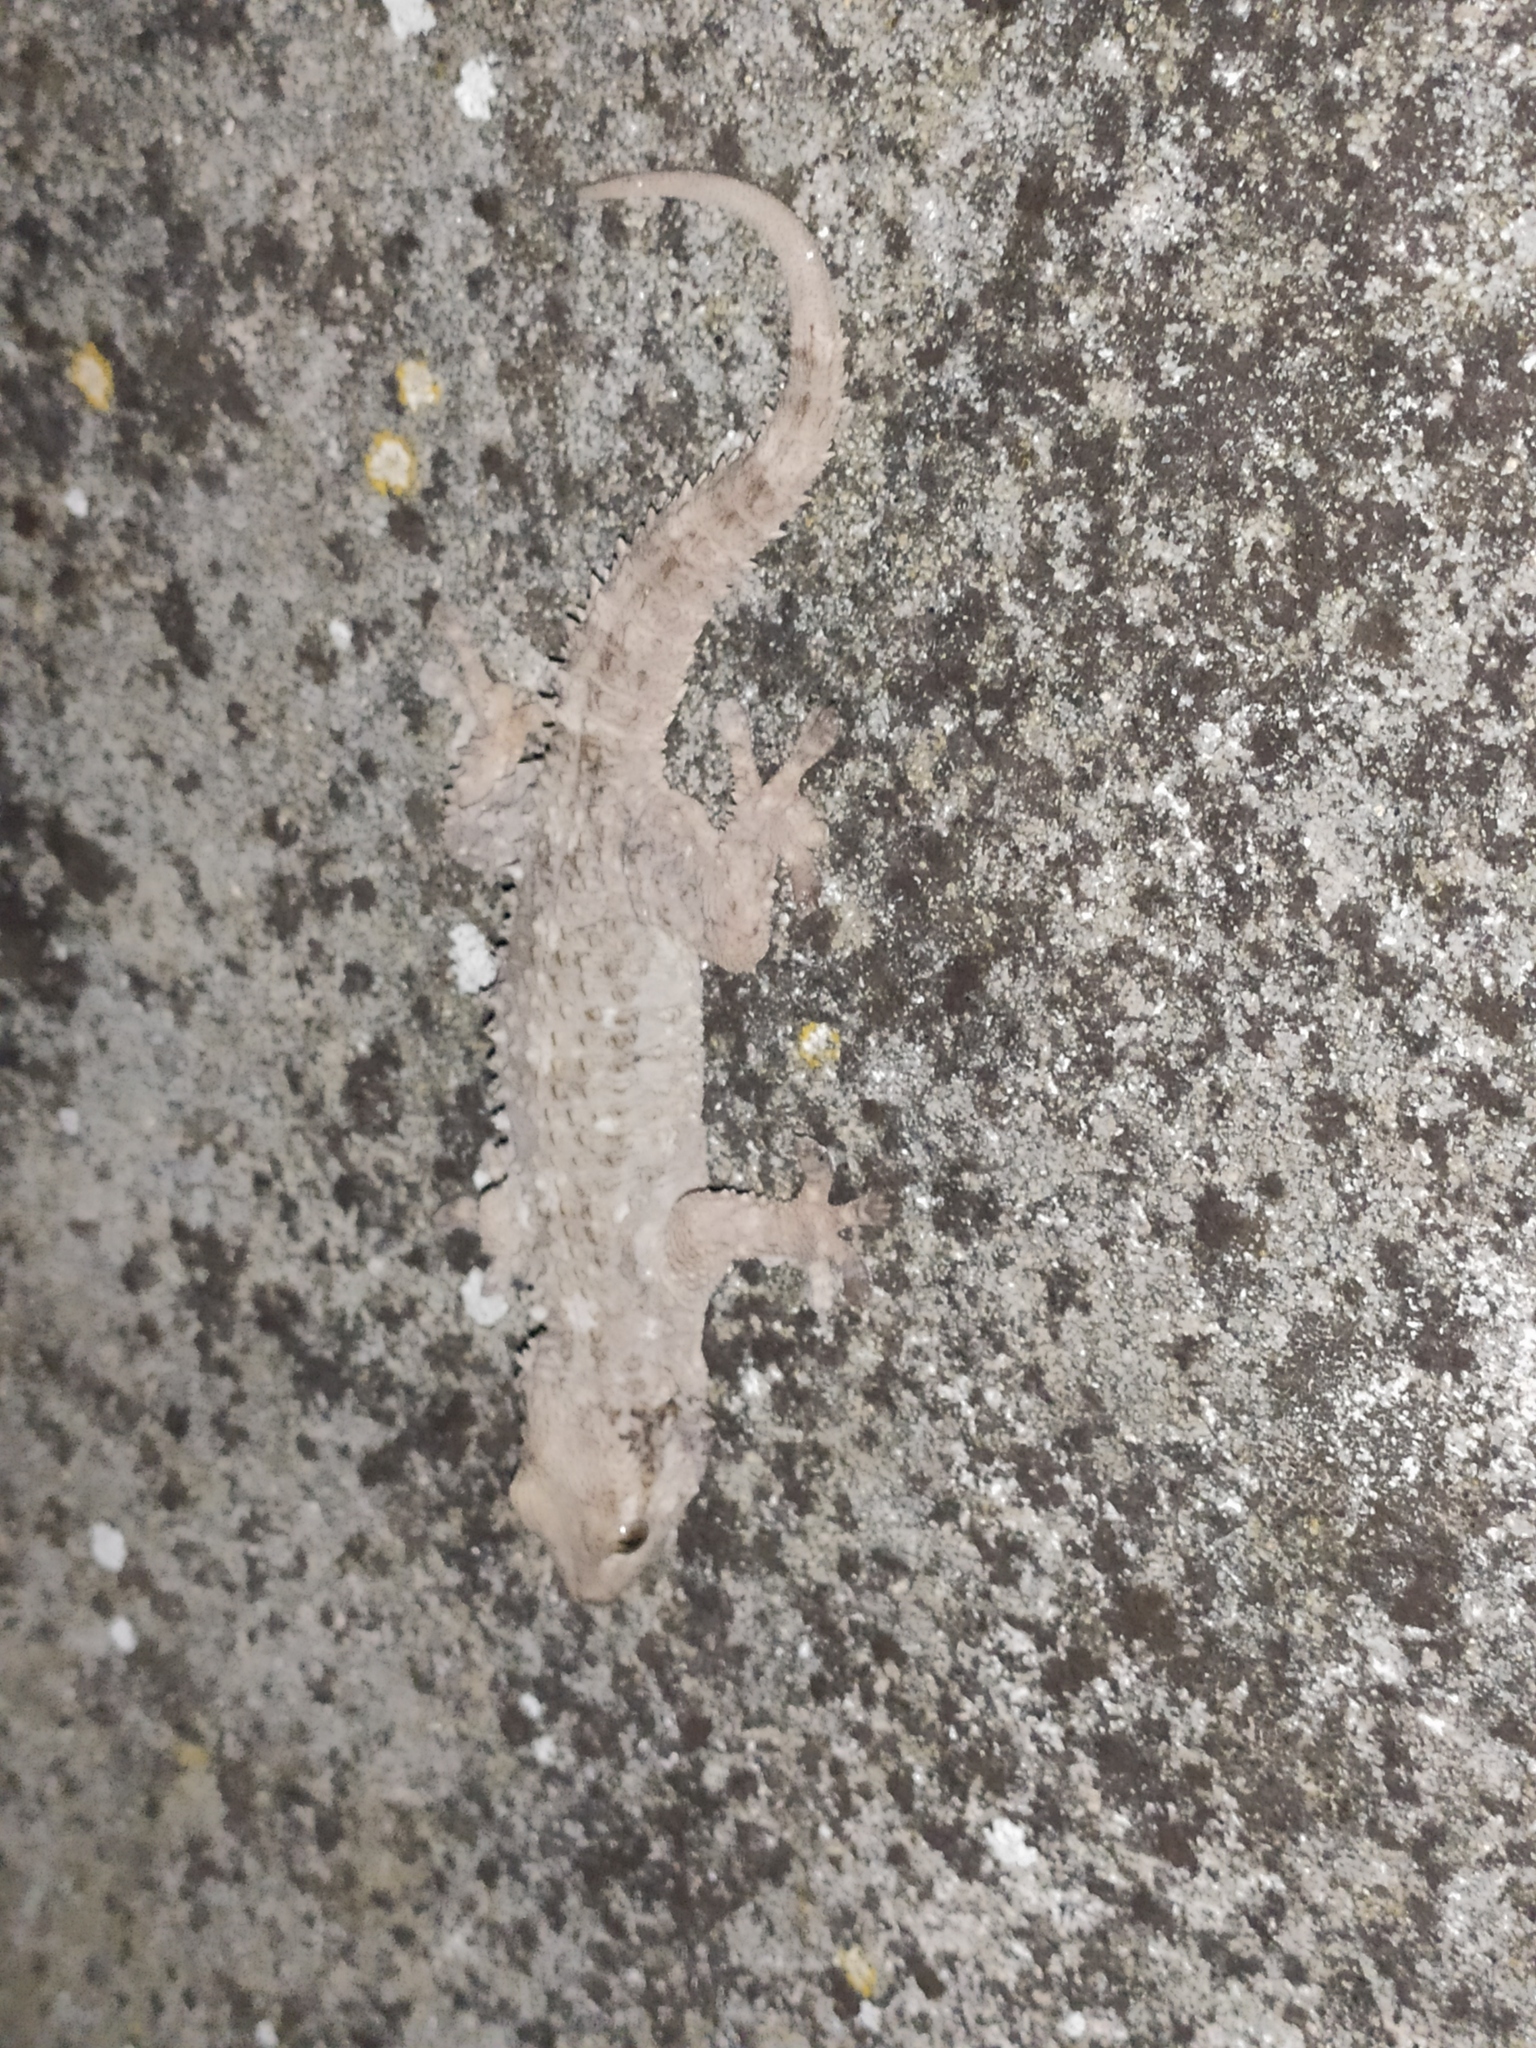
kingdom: Animalia
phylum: Chordata
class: Squamata
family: Phyllodactylidae
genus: Tarentola
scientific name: Tarentola mauritanica
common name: Moorish gecko
